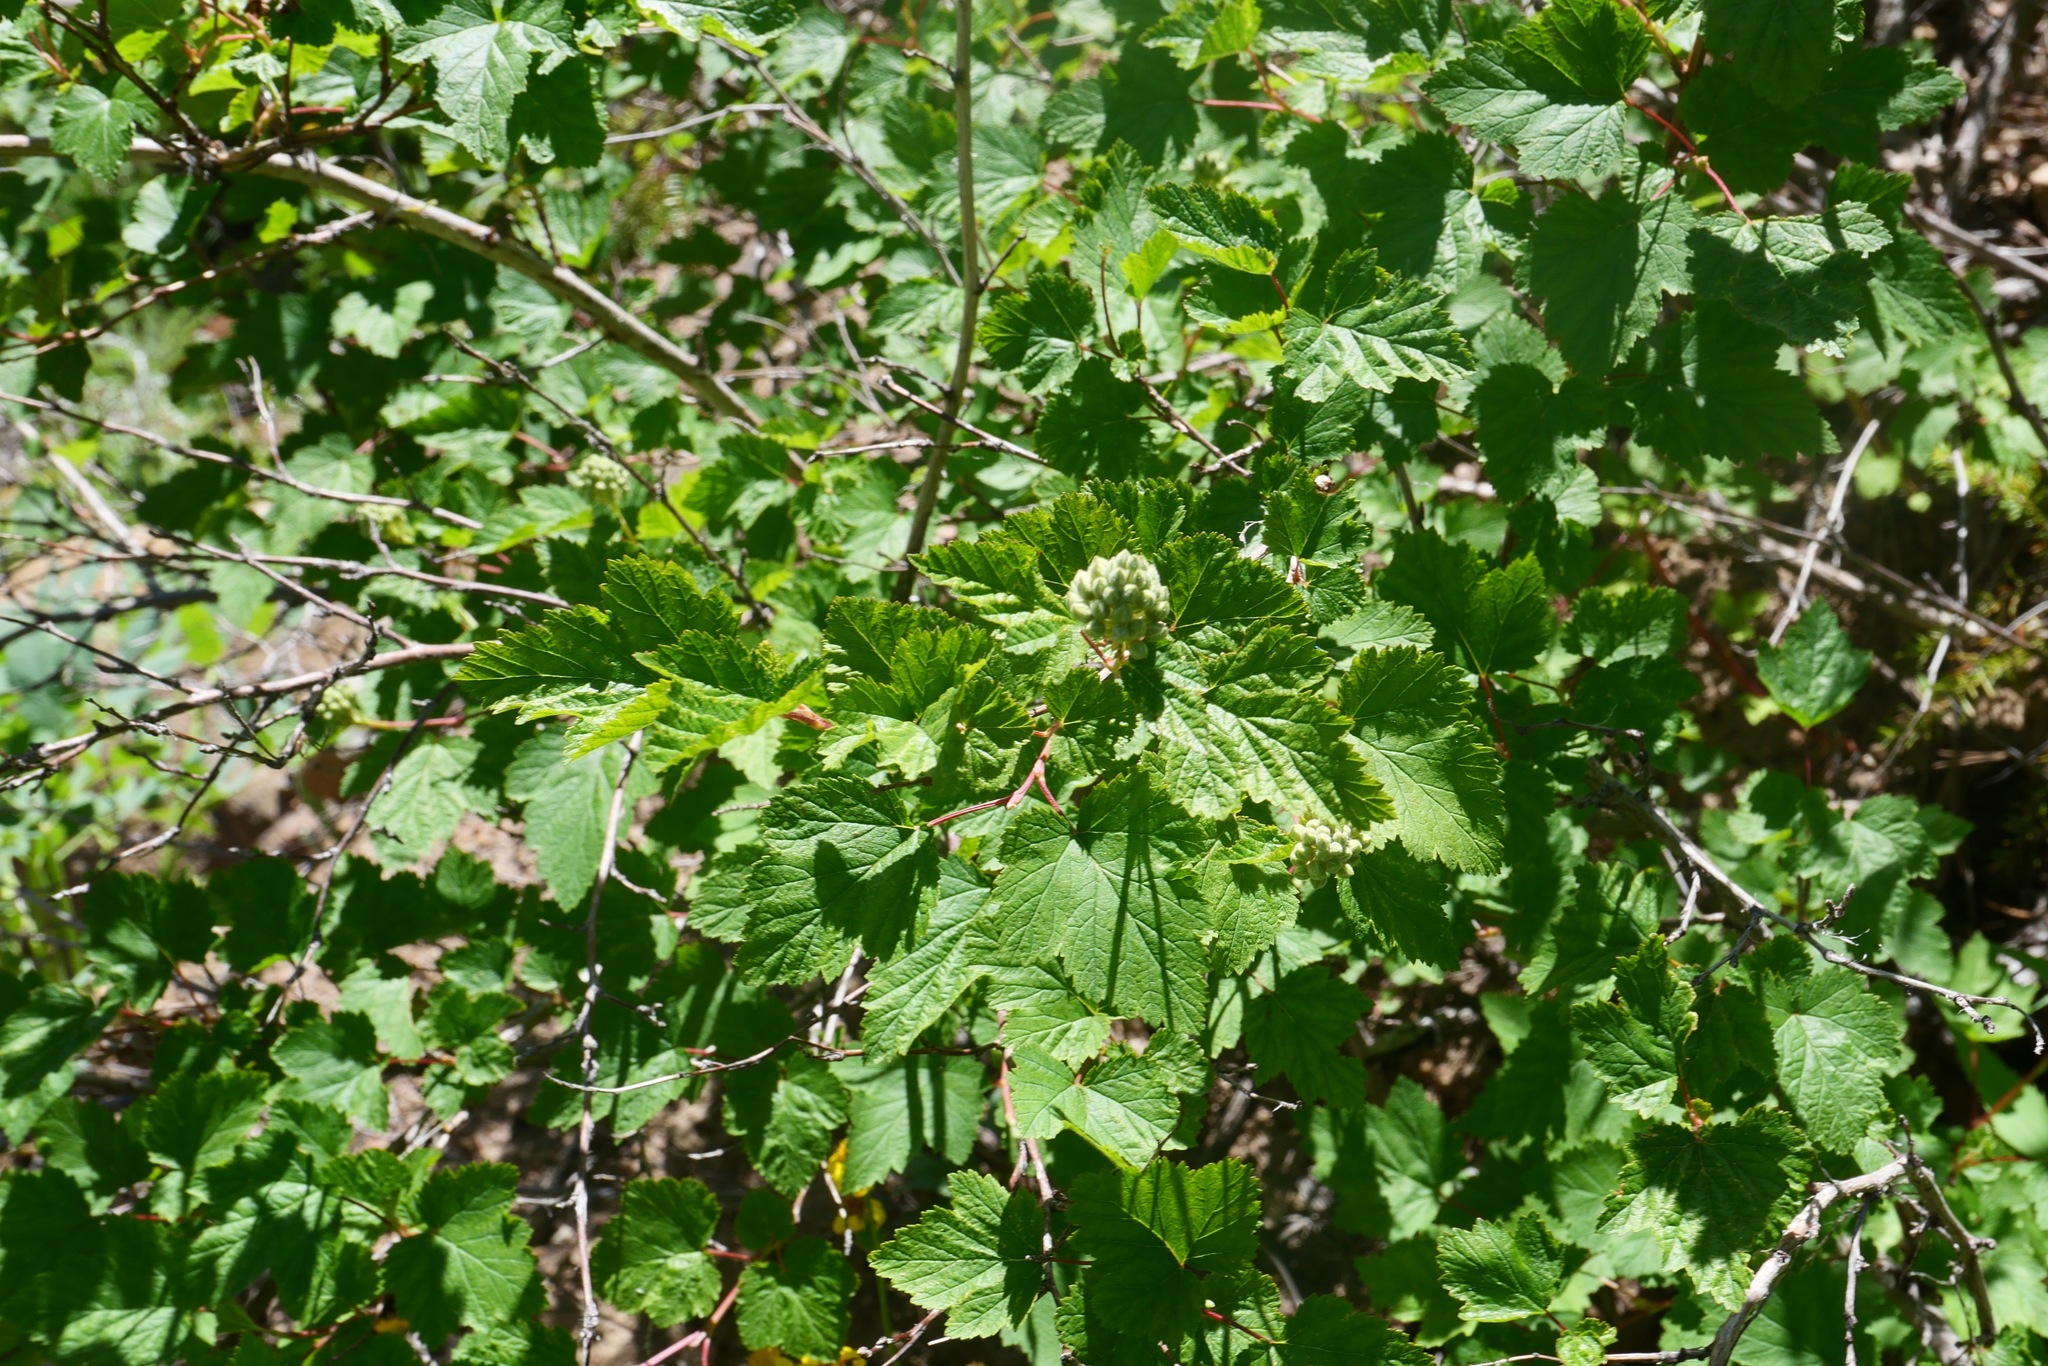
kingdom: Plantae
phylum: Tracheophyta
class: Magnoliopsida
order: Rosales
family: Rosaceae
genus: Physocarpus
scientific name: Physocarpus capitatus
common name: Pacific ninebark
